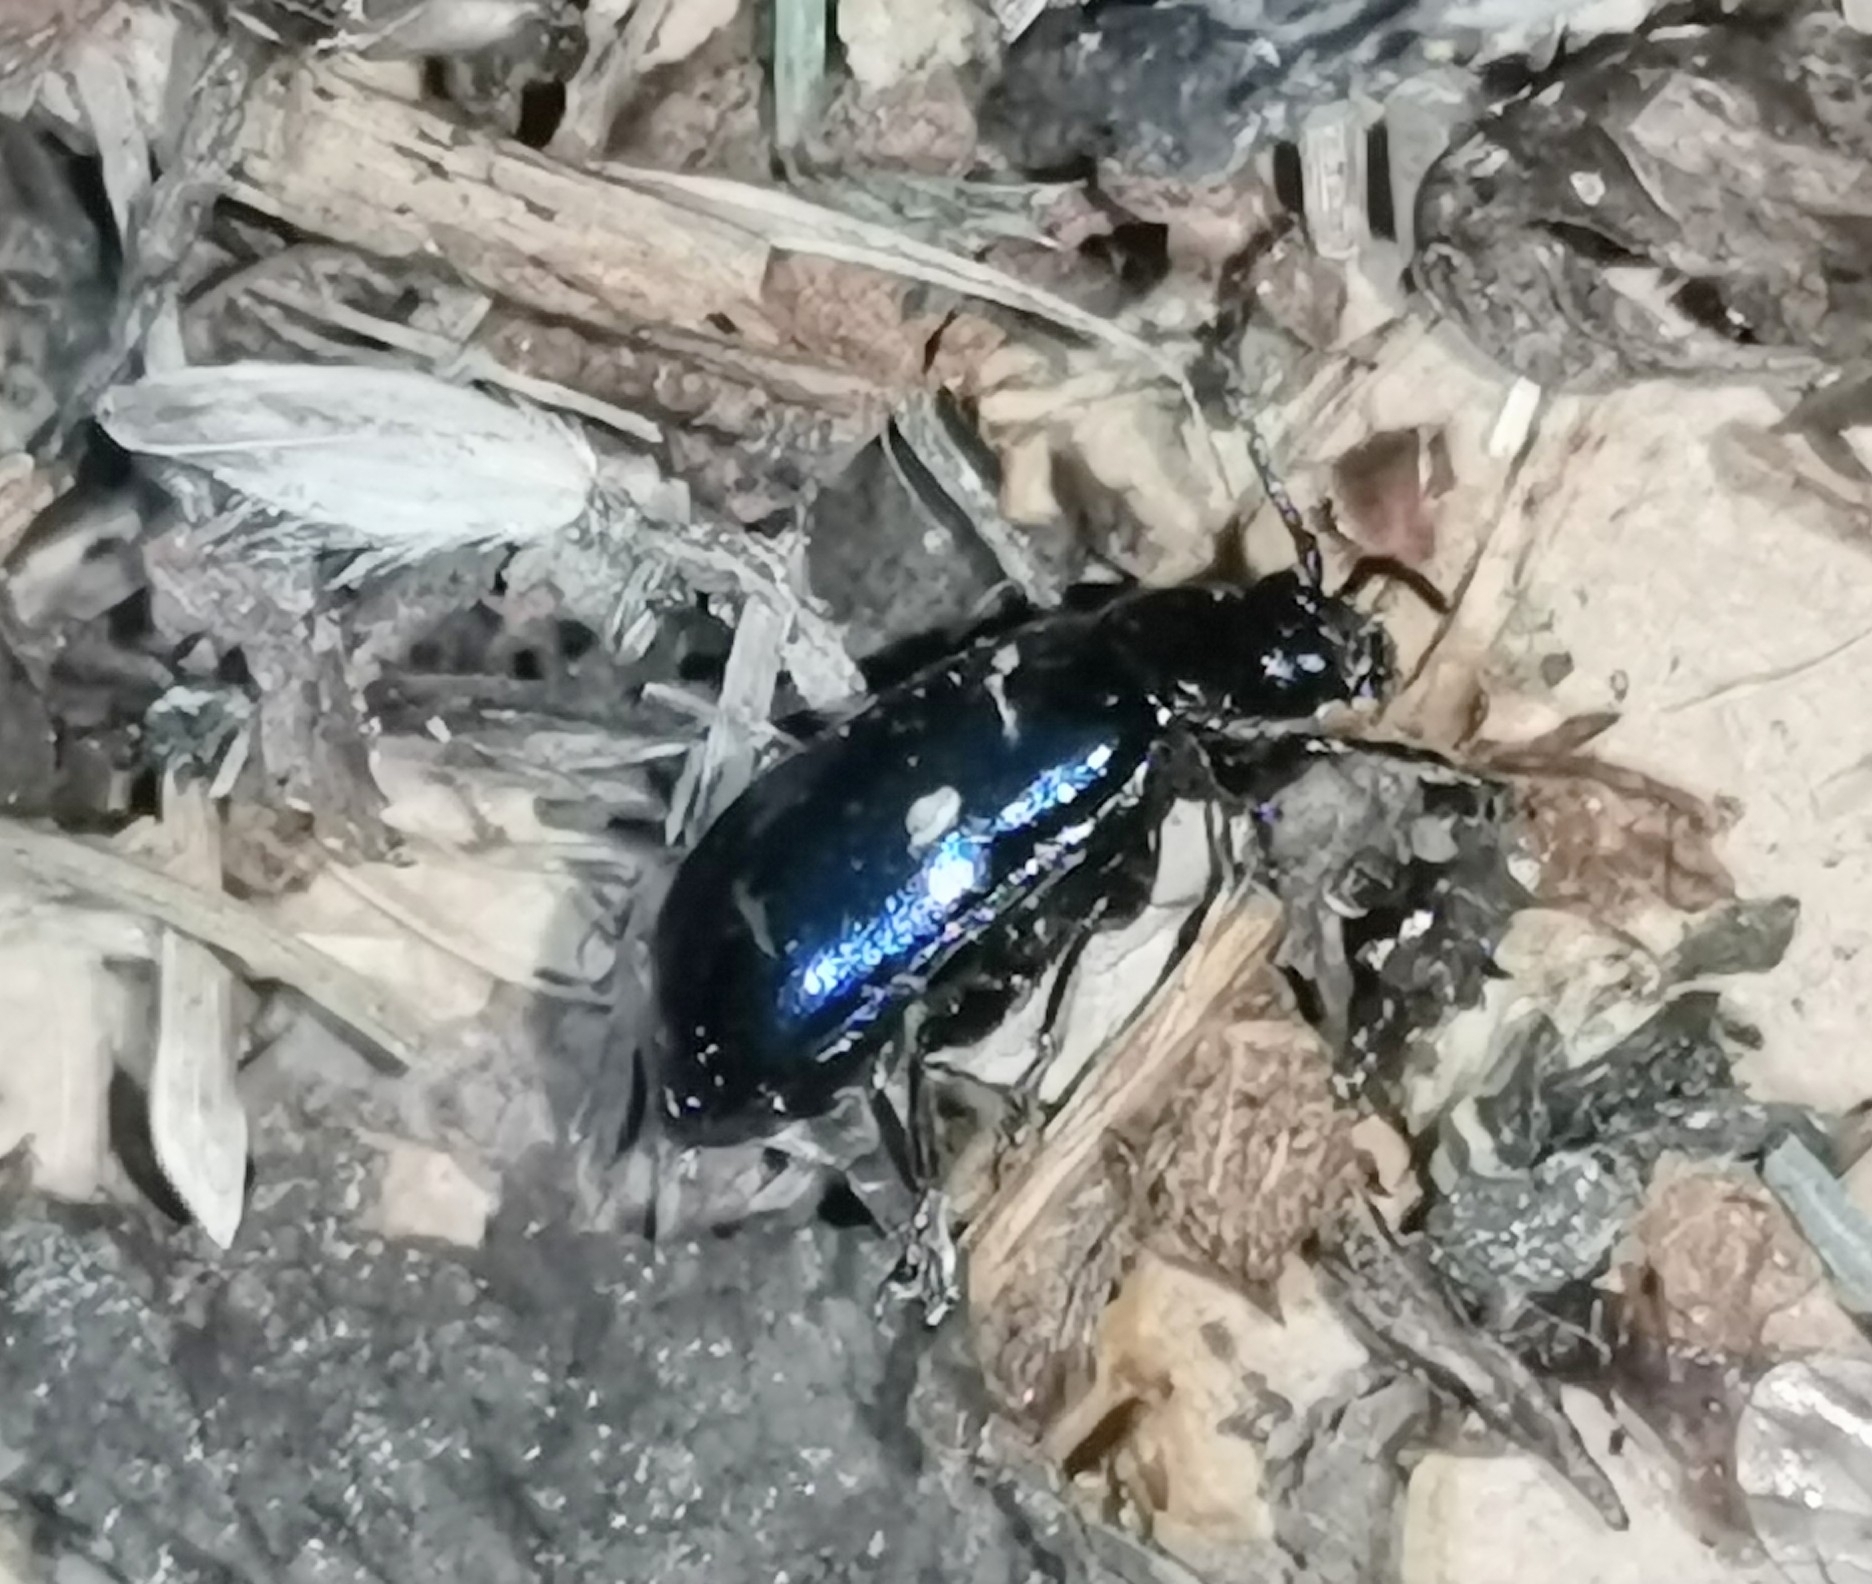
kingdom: Animalia
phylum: Arthropoda
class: Insecta
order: Coleoptera
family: Chrysomelidae
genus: Agelastica
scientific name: Agelastica alni
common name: Alder leaf beetle
